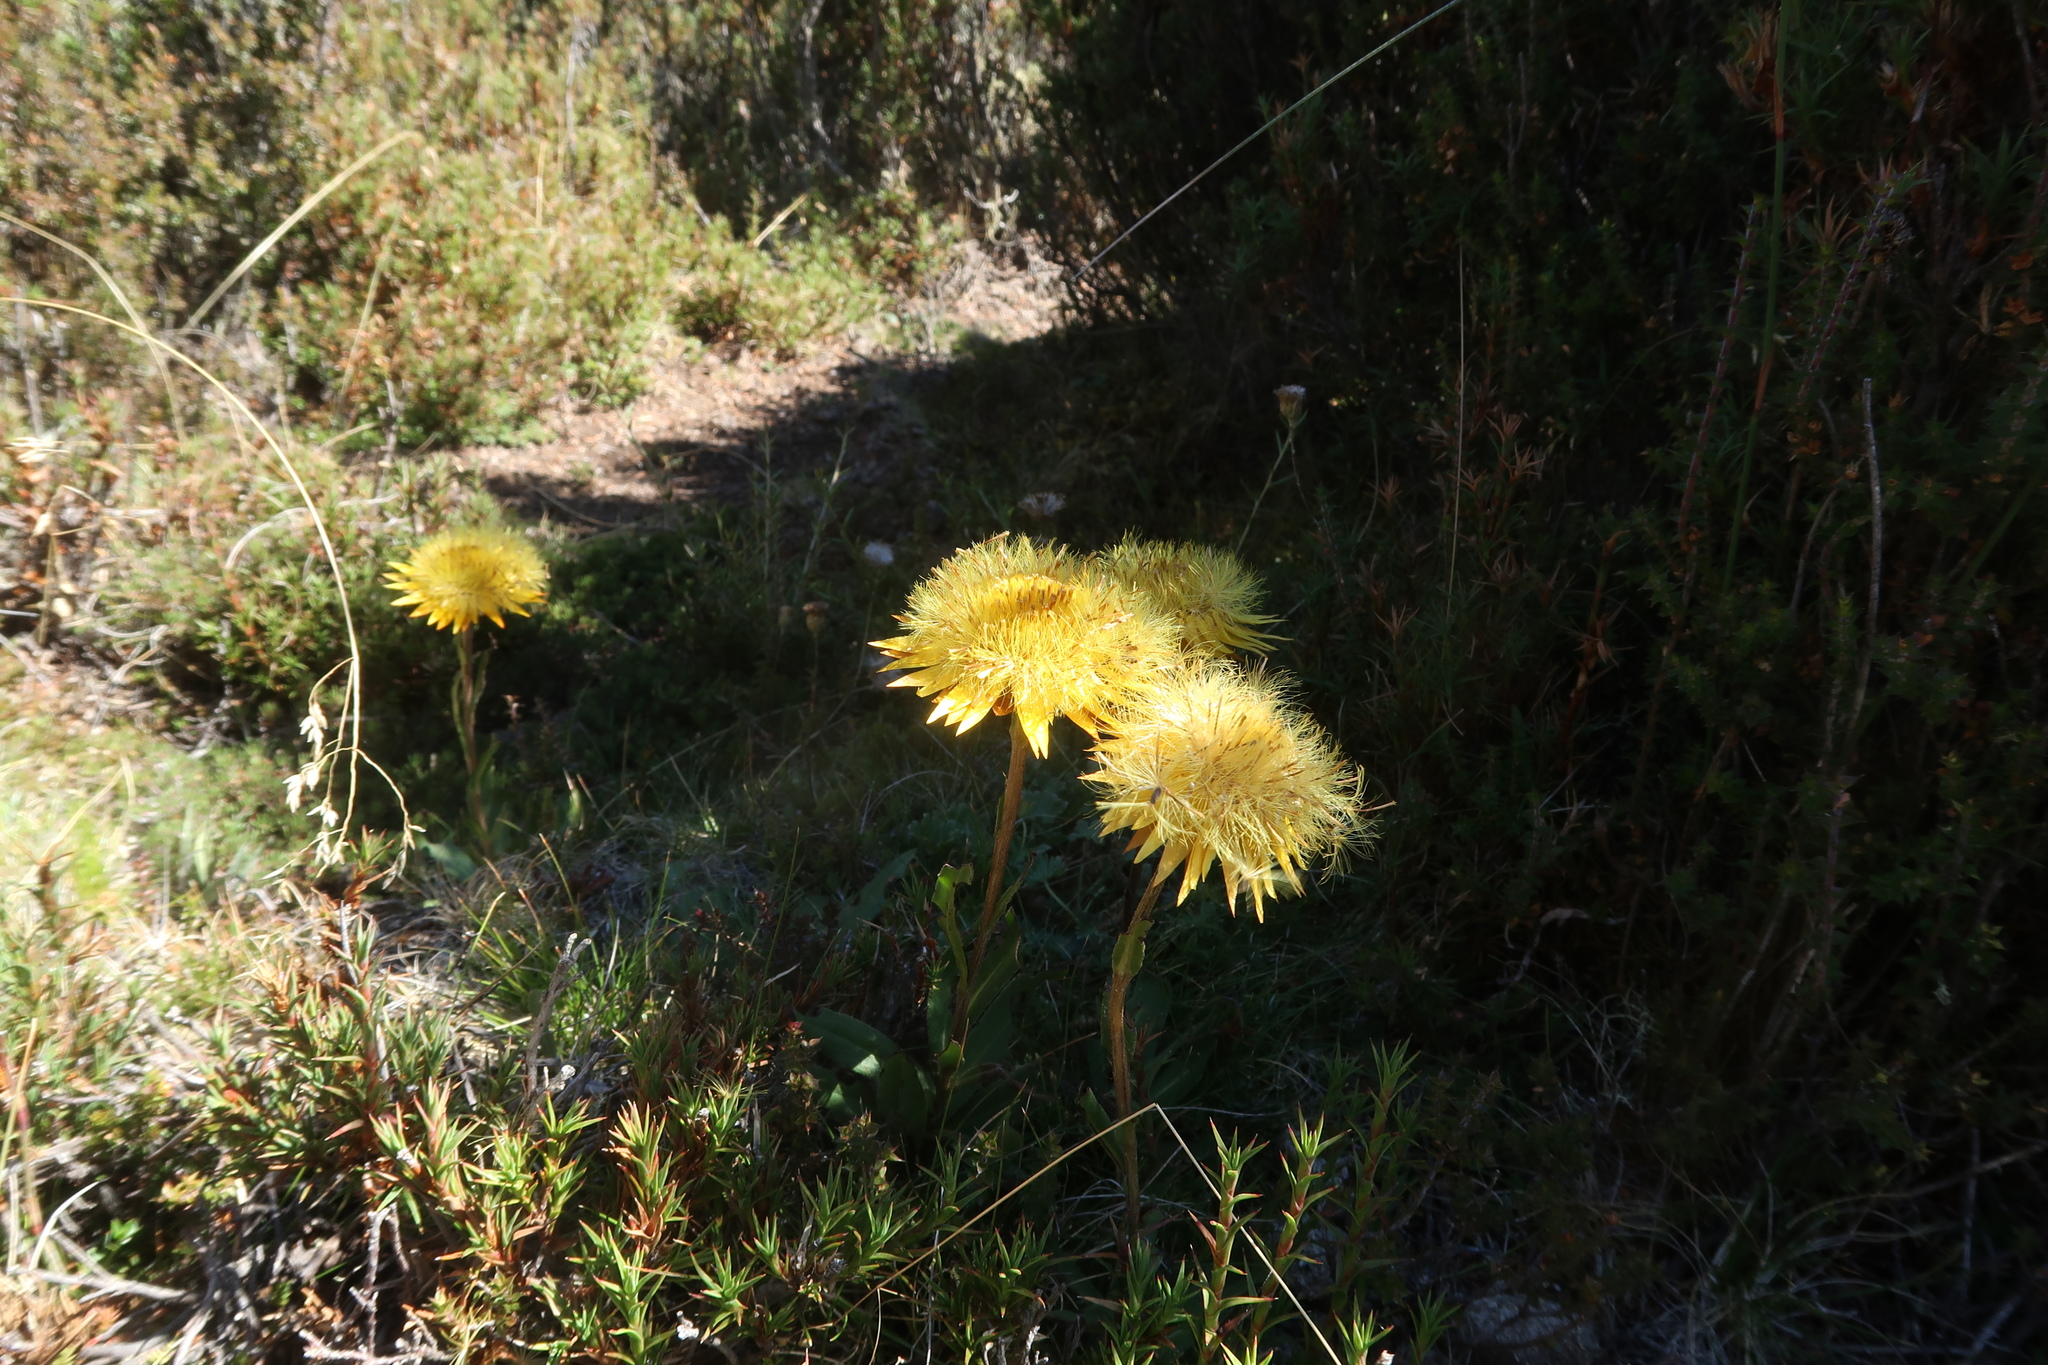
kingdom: Plantae
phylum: Tracheophyta
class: Magnoliopsida
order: Asterales
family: Asteraceae
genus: Xerochrysum
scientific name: Xerochrysum subundulatum
